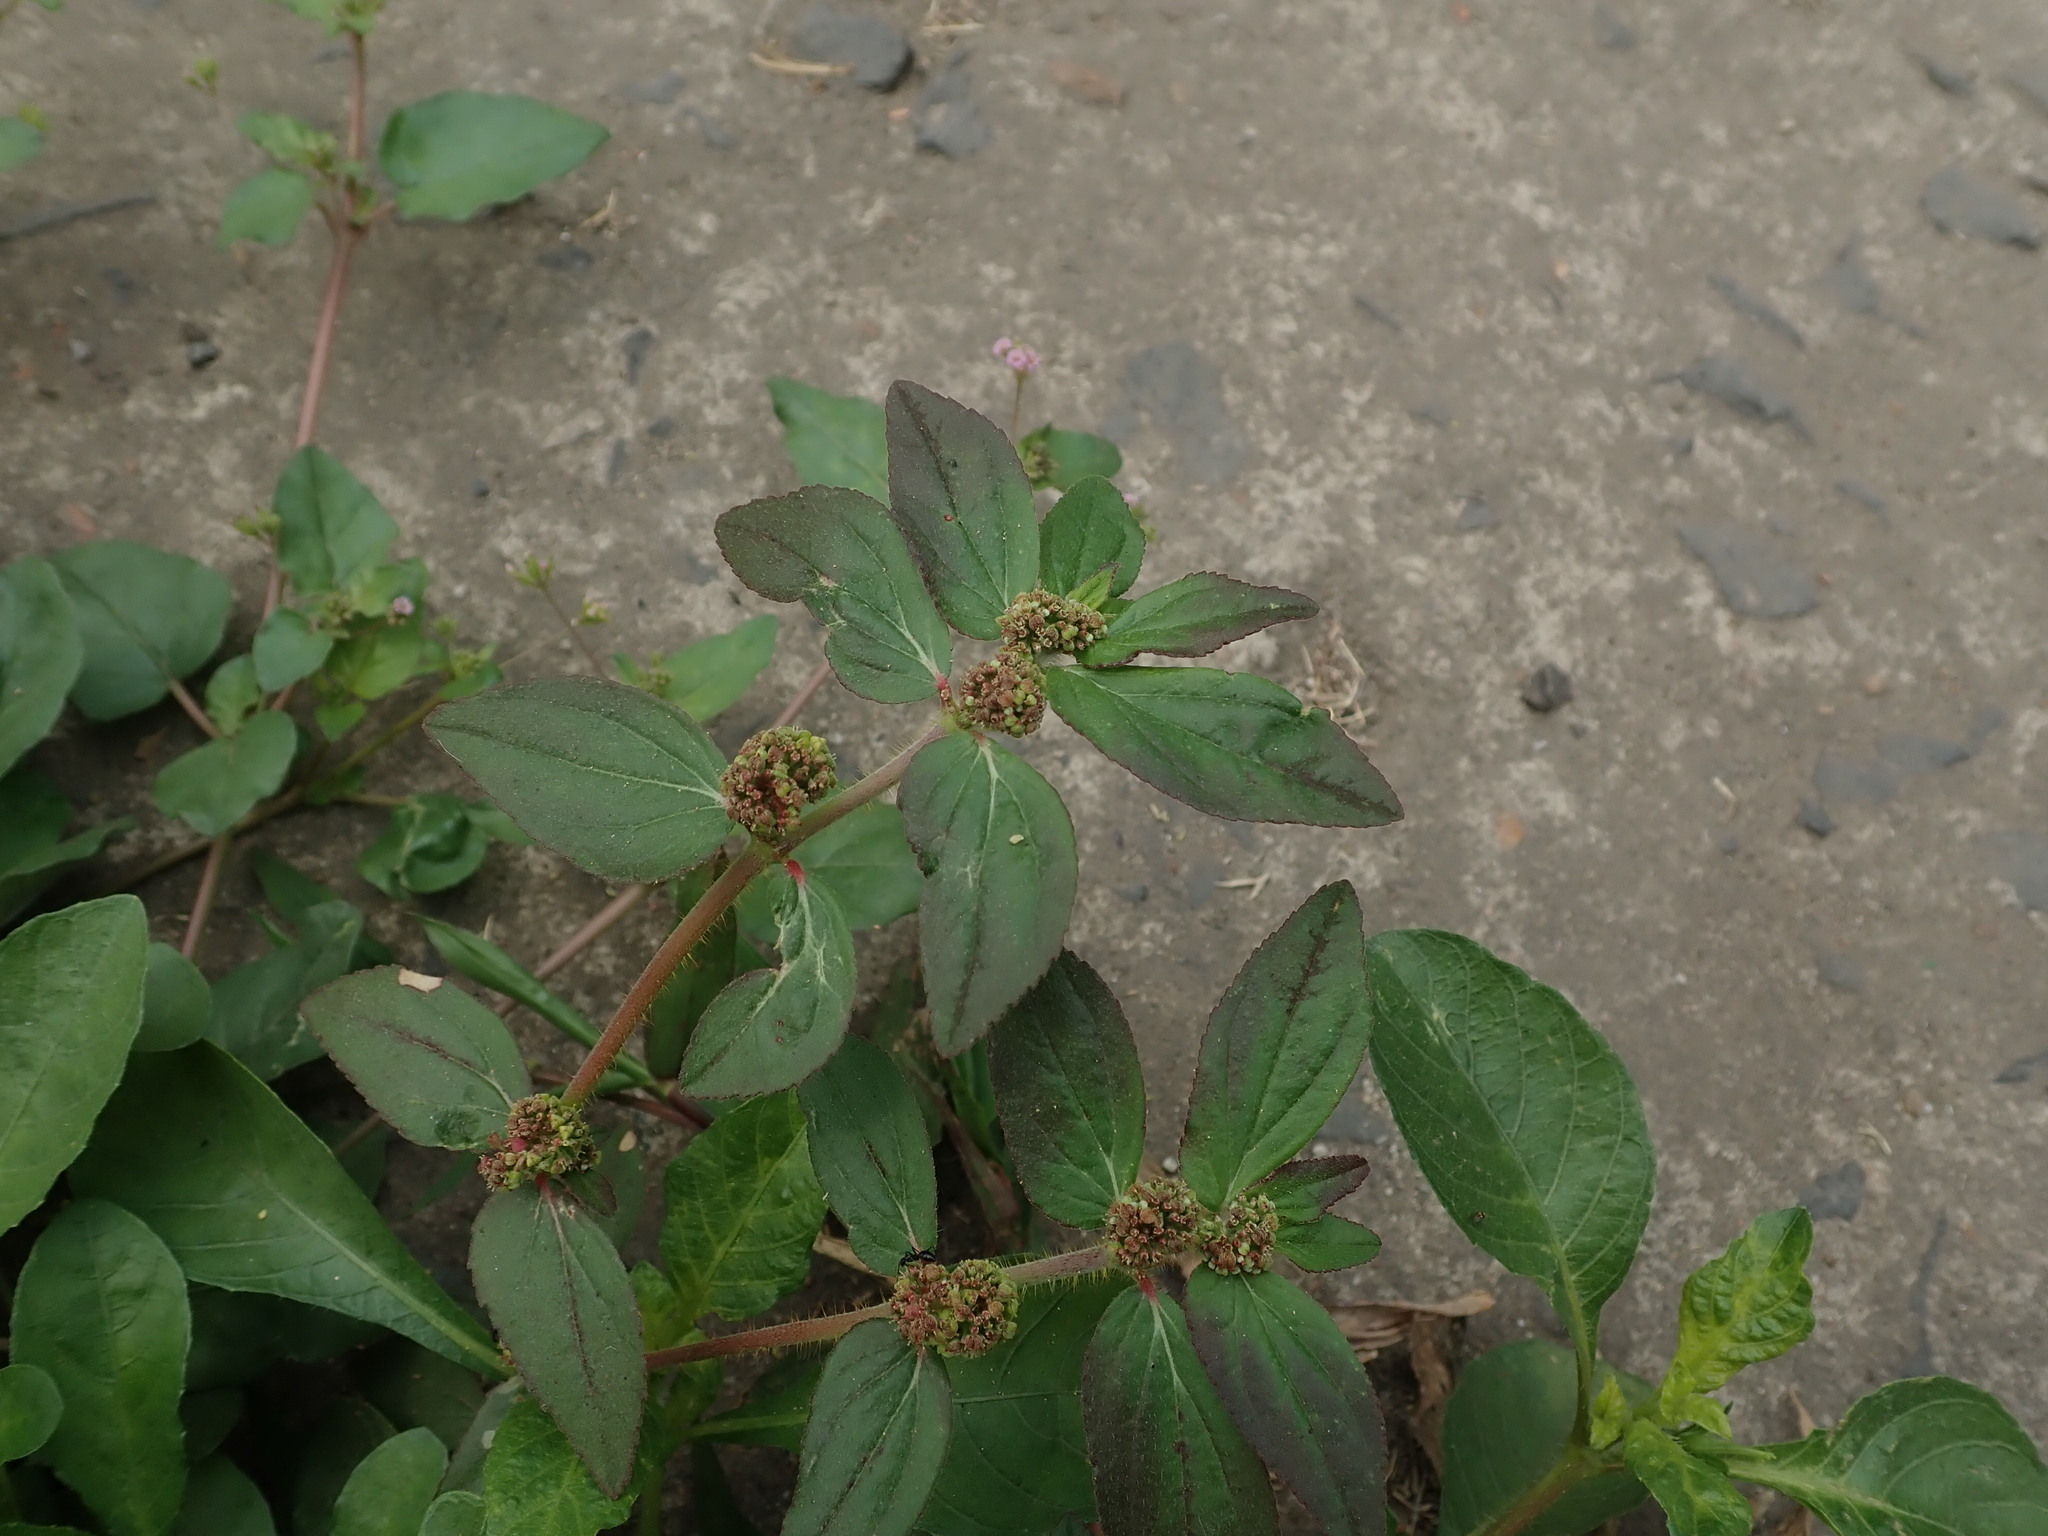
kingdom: Plantae
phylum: Tracheophyta
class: Magnoliopsida
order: Malpighiales
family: Euphorbiaceae
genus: Euphorbia
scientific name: Euphorbia hirta
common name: Pillpod sandmat
